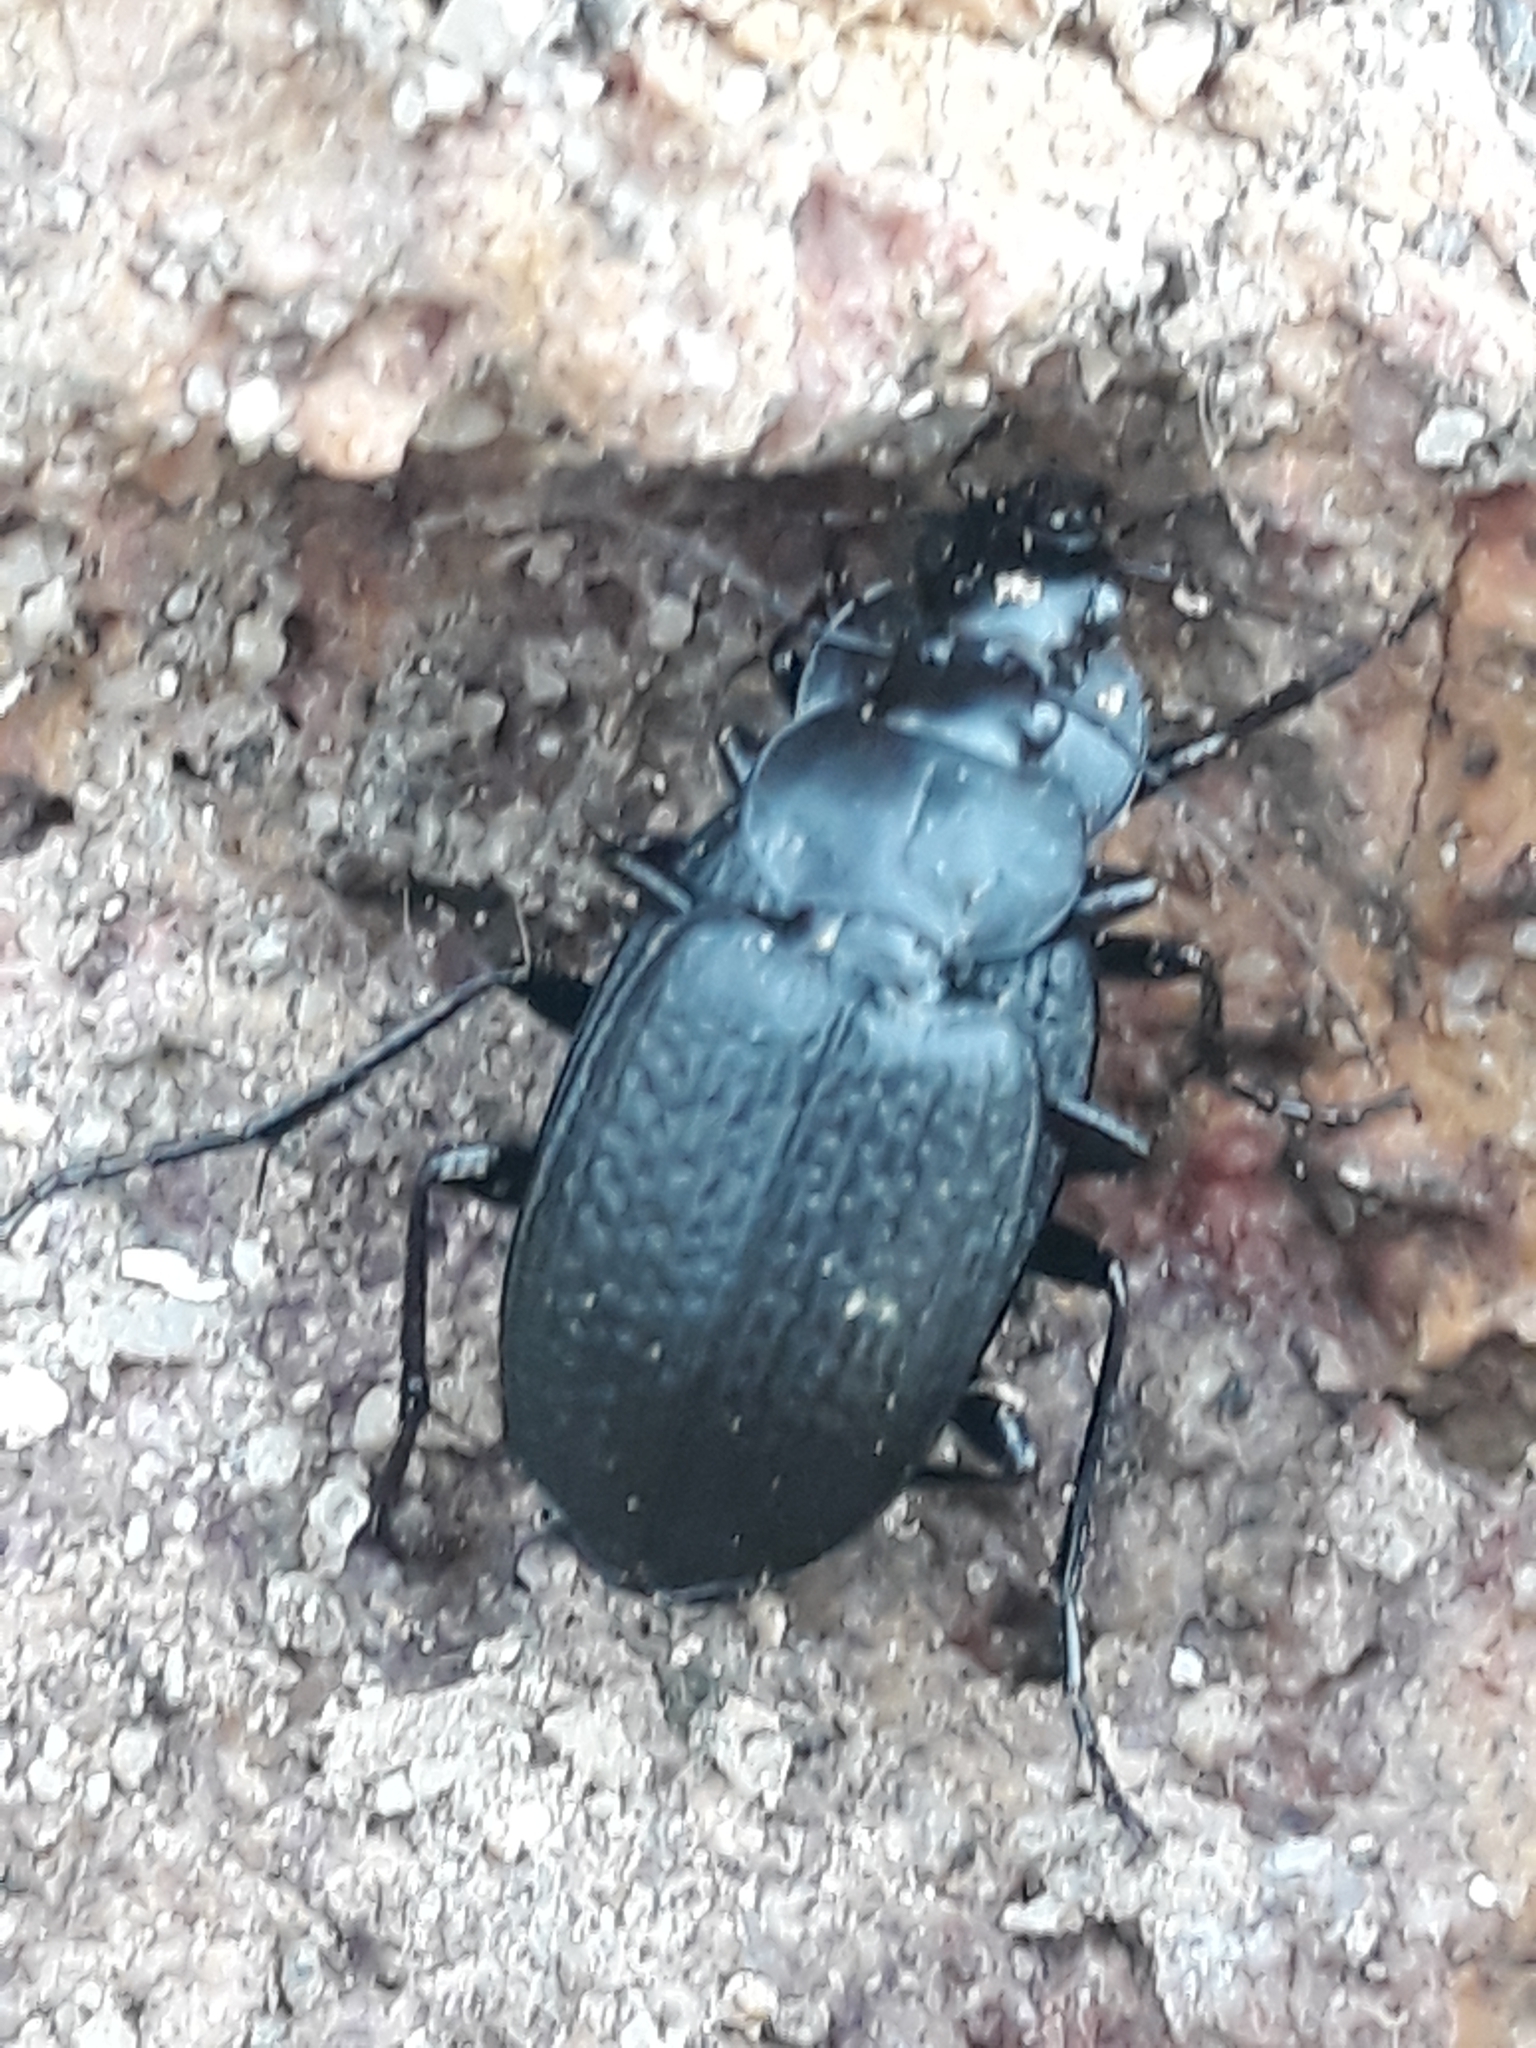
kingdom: Animalia
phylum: Arthropoda
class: Insecta
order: Coleoptera
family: Carabidae
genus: Licinus
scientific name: Licinus punctatulus
